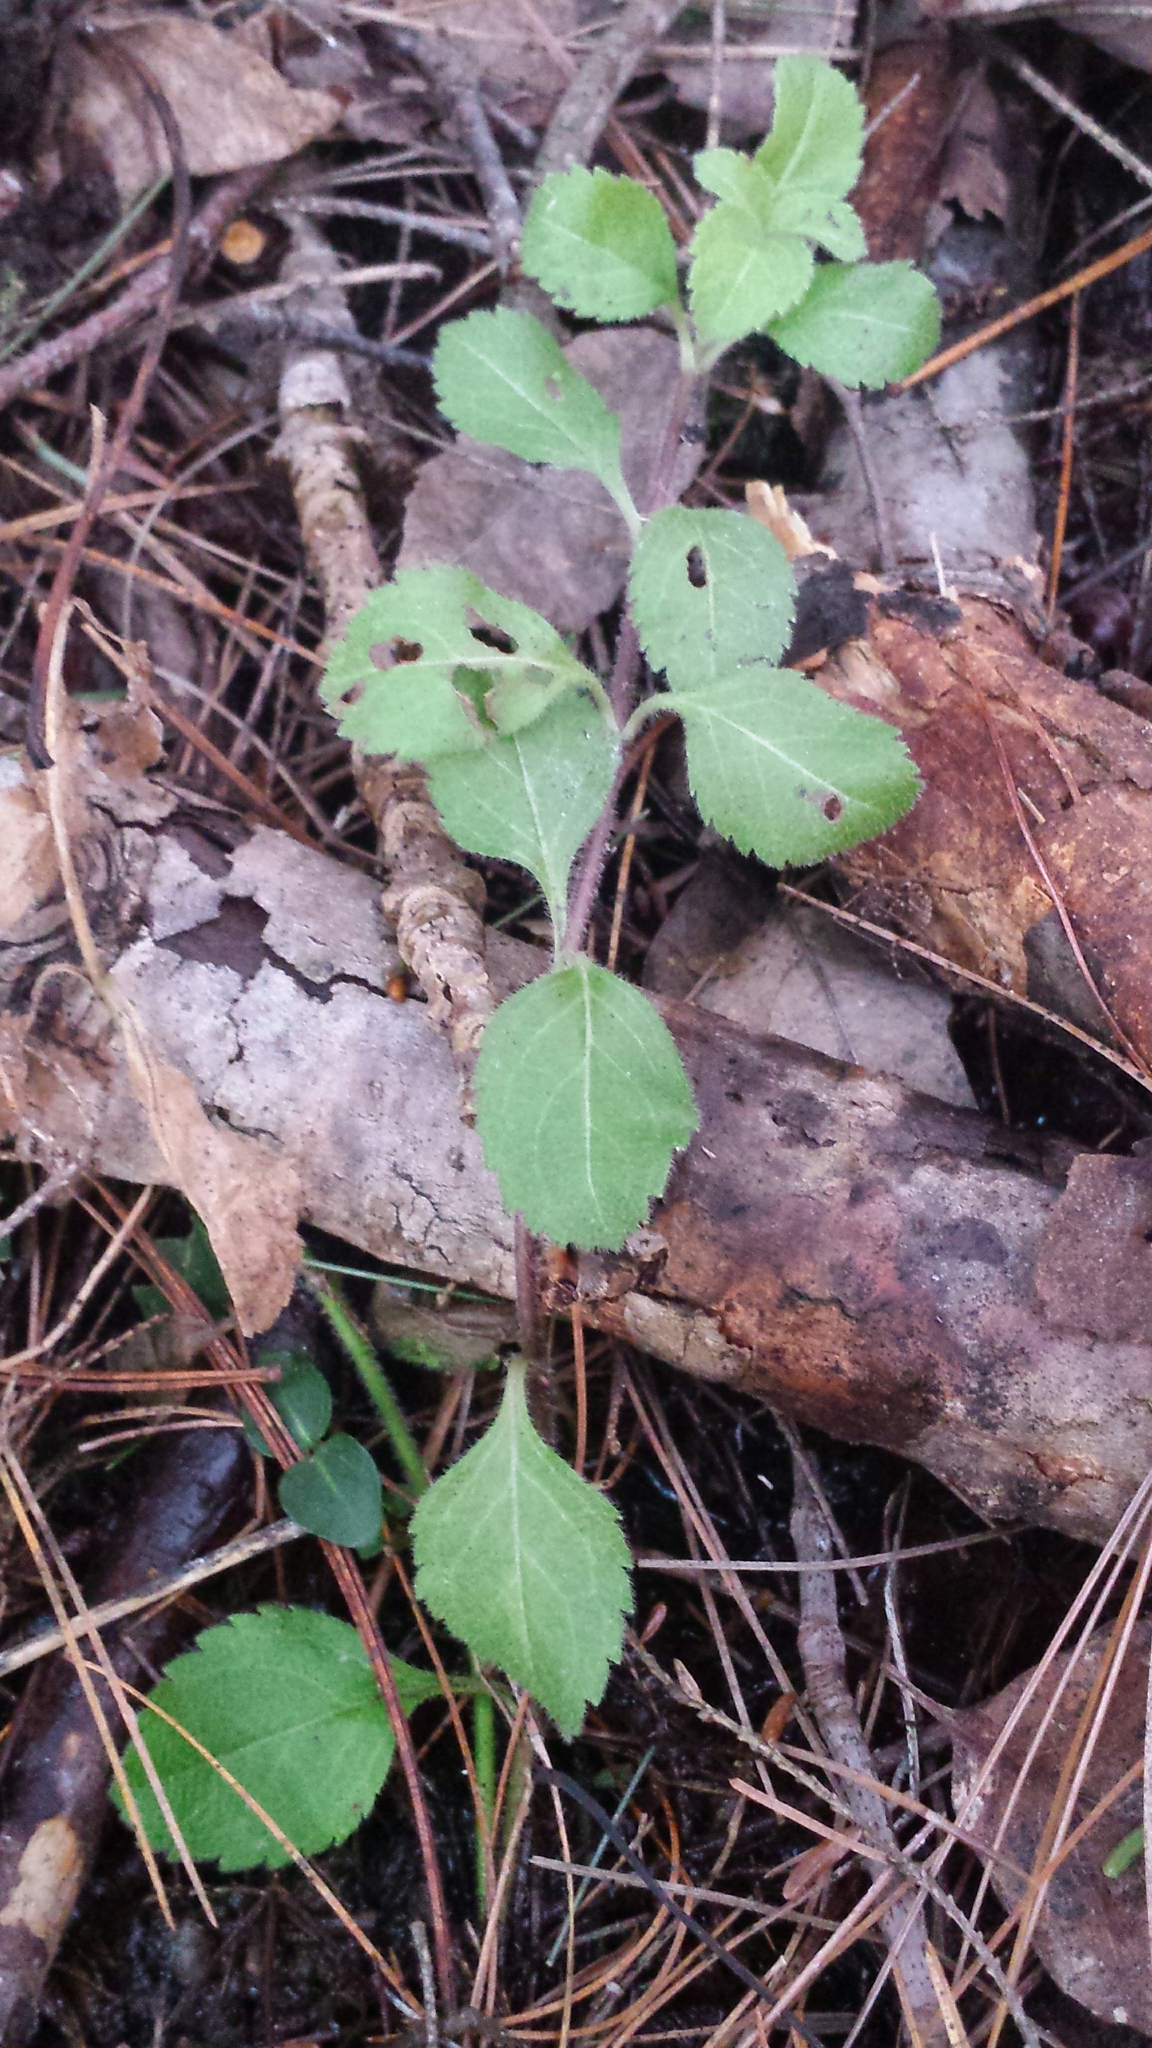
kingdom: Plantae
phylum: Tracheophyta
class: Magnoliopsida
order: Lamiales
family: Plantaginaceae
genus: Veronica
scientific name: Veronica officinalis
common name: Common speedwell
